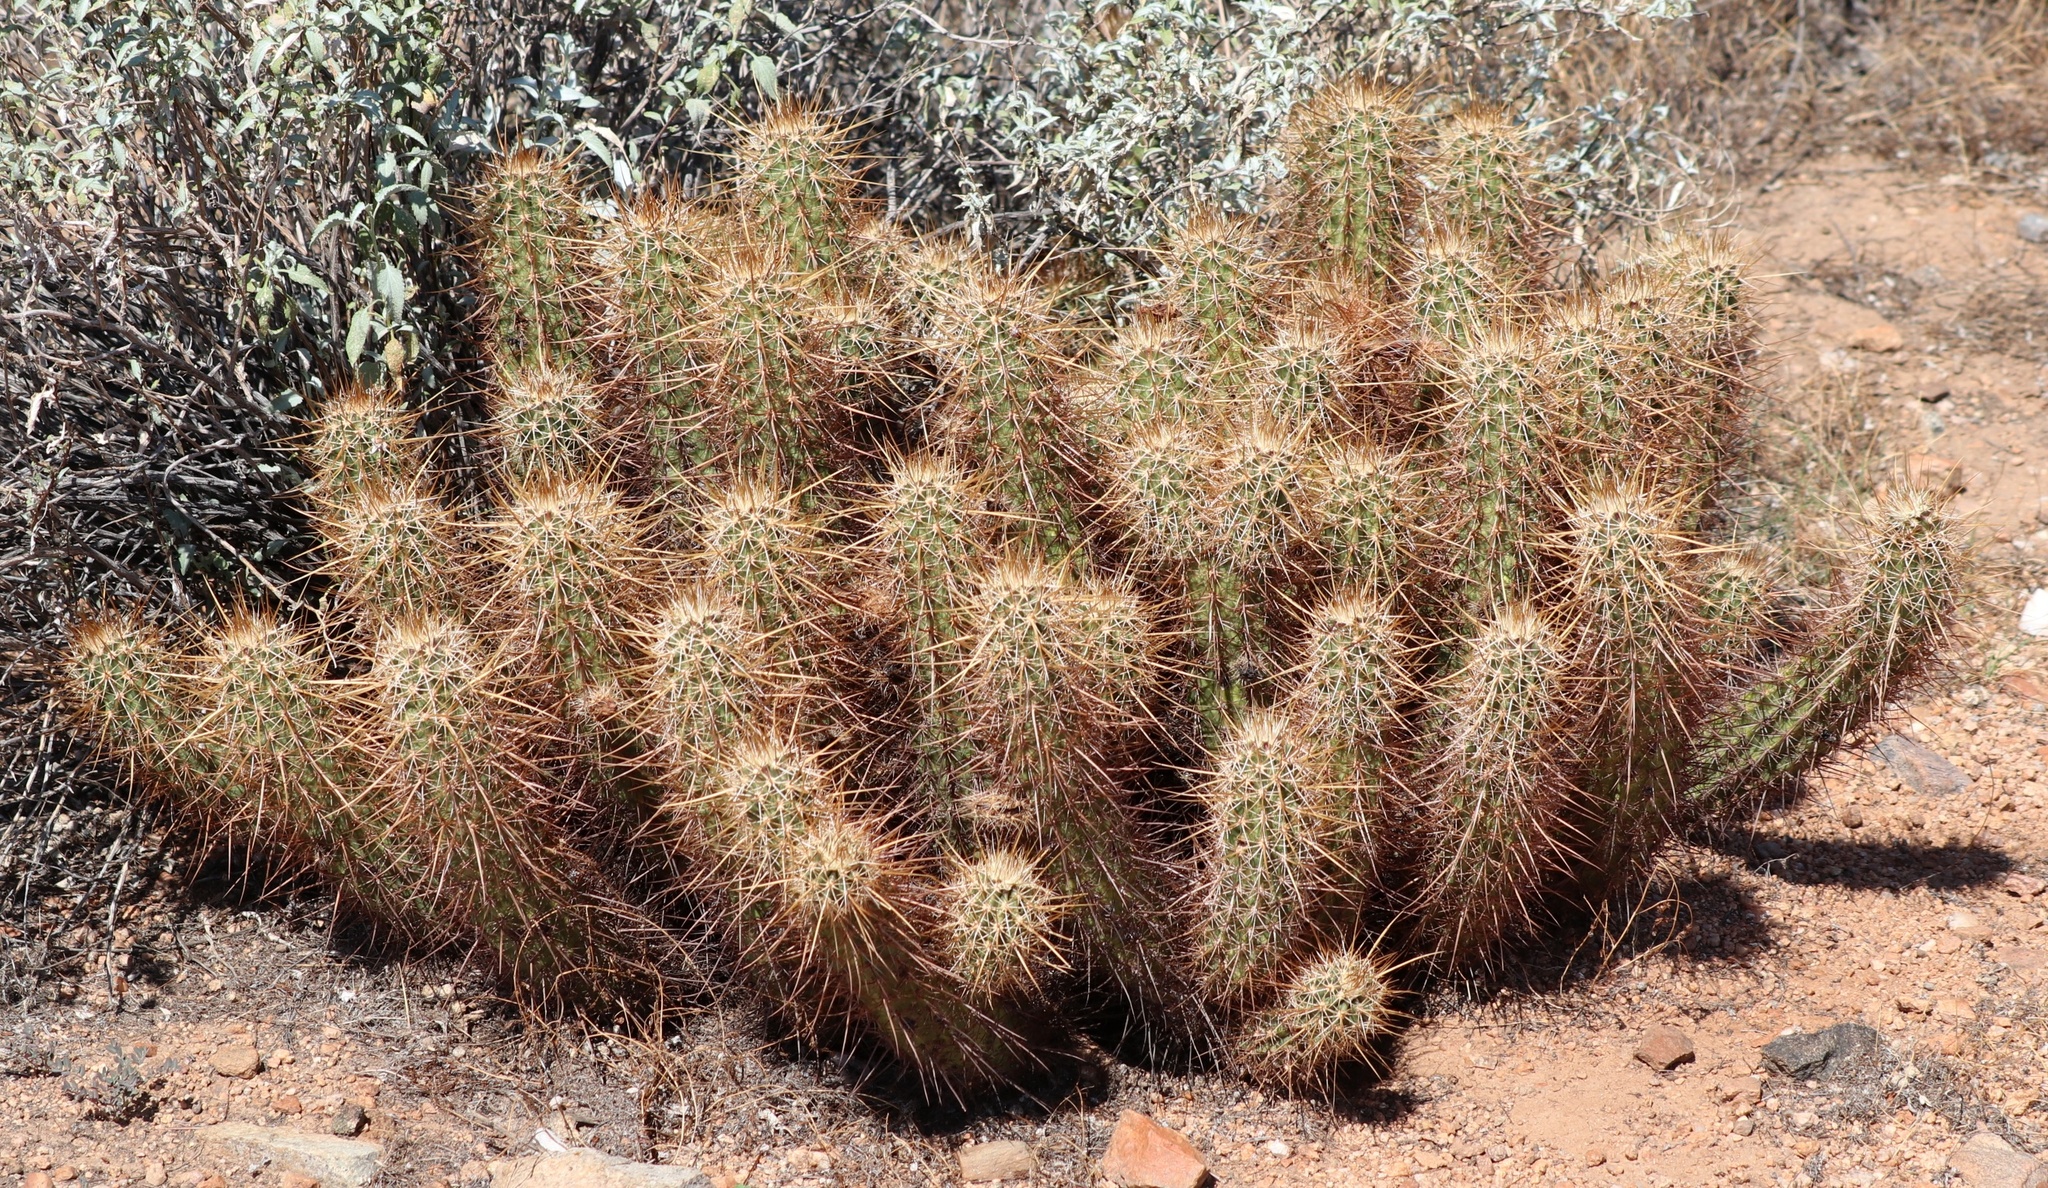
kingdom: Plantae
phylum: Tracheophyta
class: Magnoliopsida
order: Caryophyllales
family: Cactaceae
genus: Echinocereus
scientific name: Echinocereus engelmannii
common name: Engelmann's hedgehog cactus
